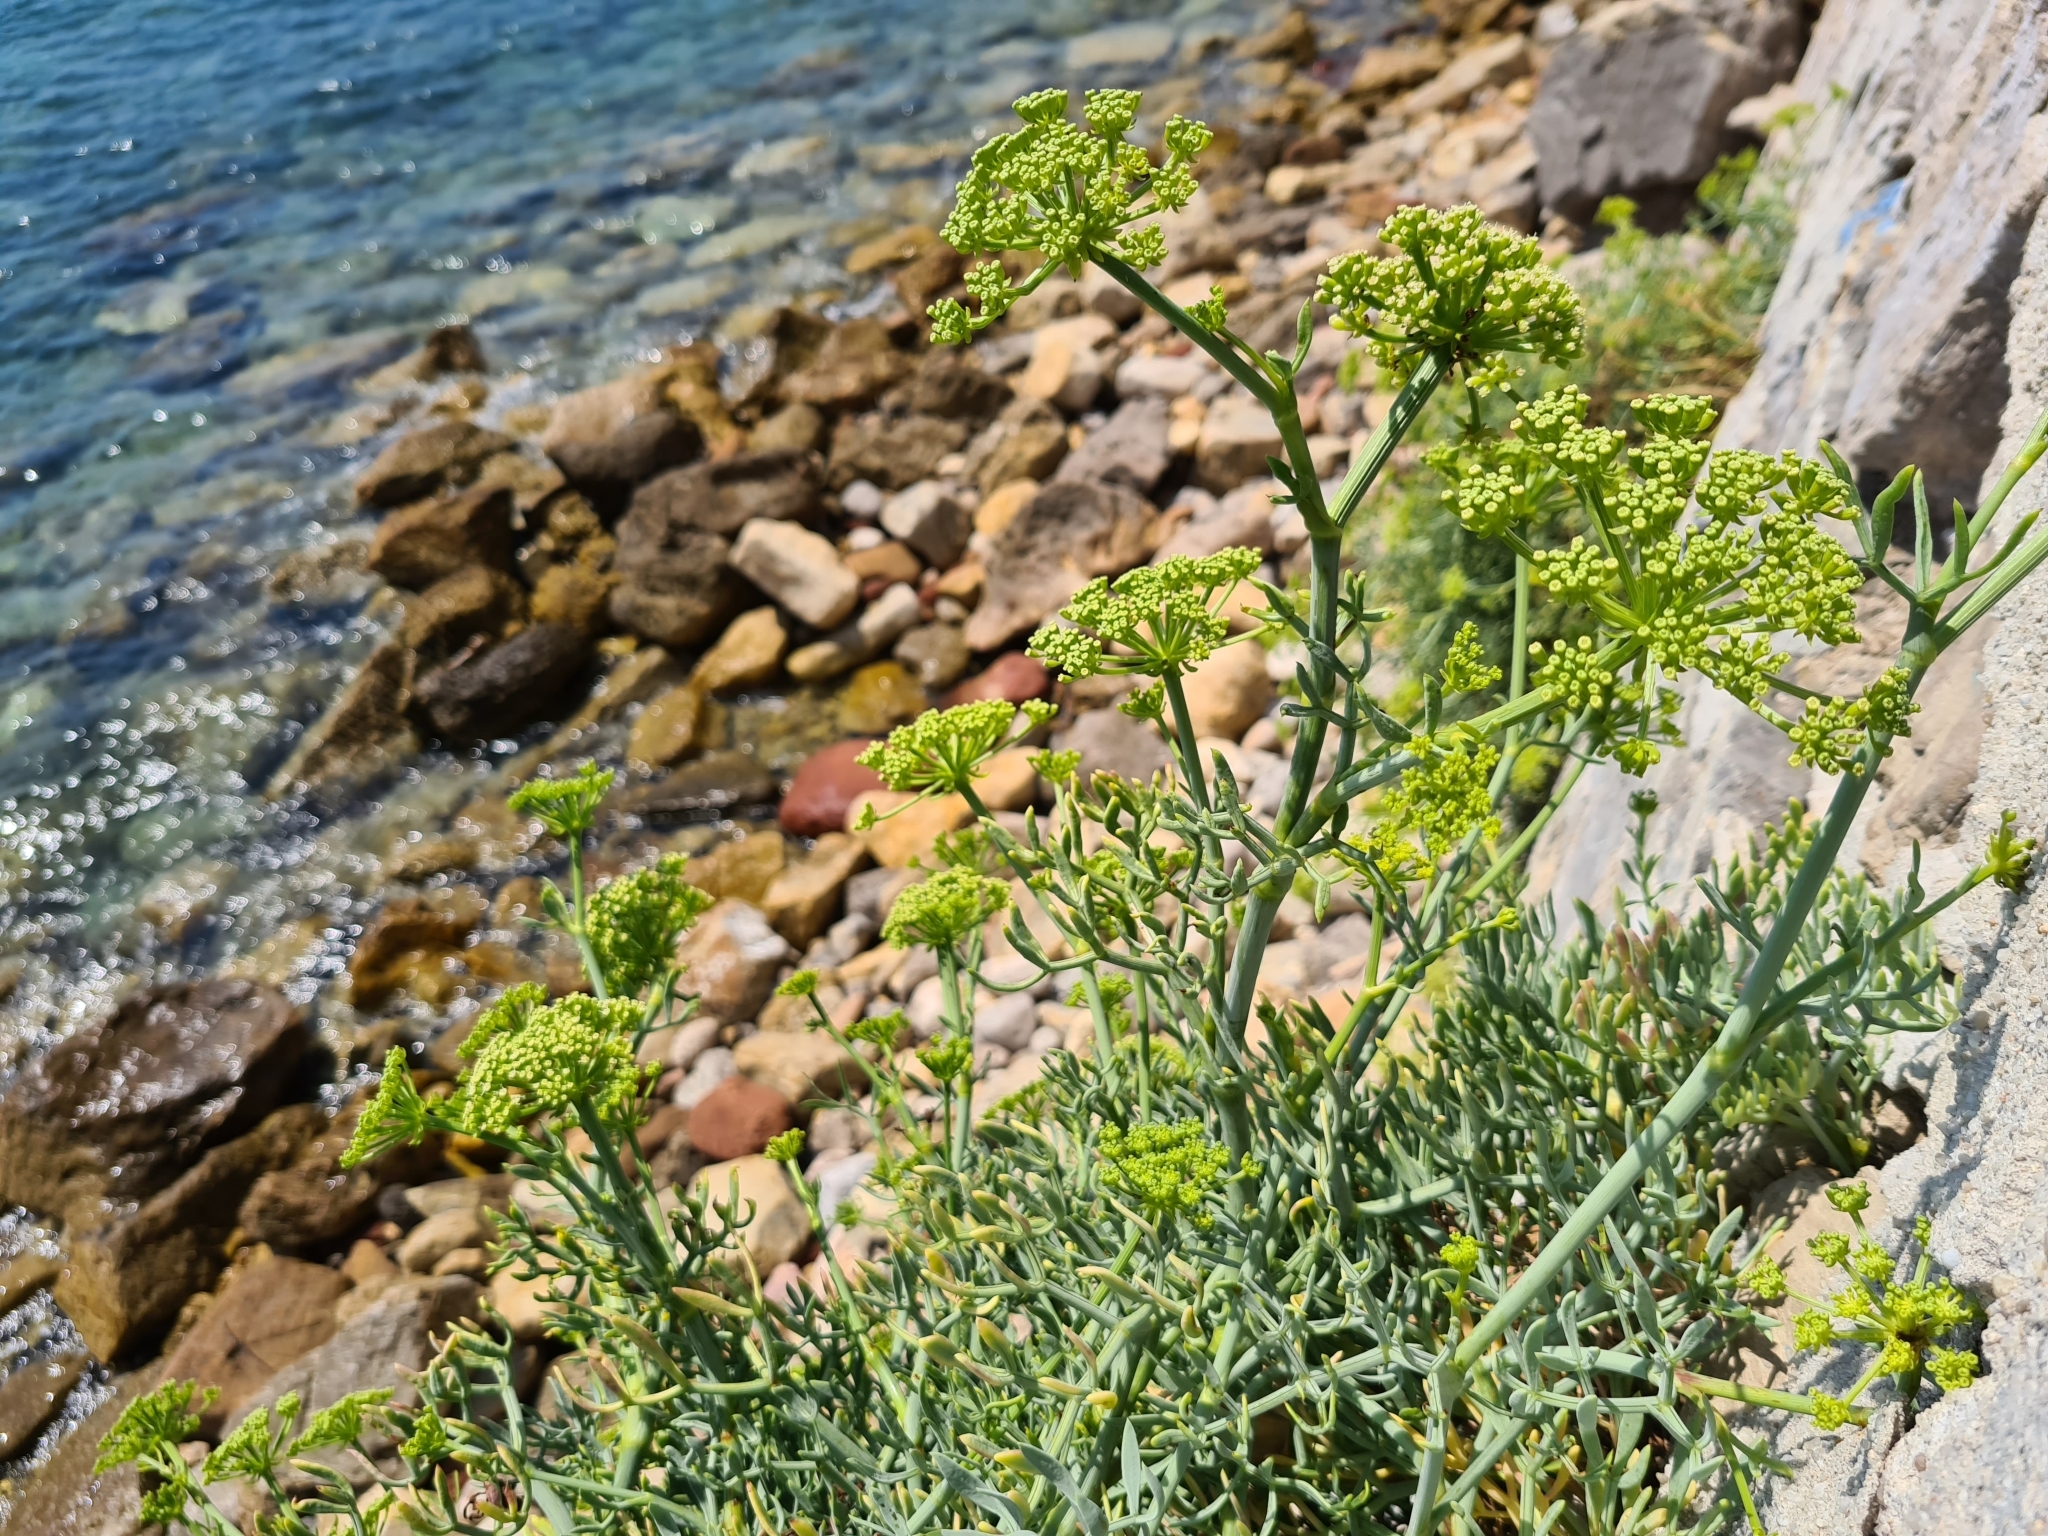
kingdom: Plantae
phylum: Tracheophyta
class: Magnoliopsida
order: Apiales
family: Apiaceae
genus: Crithmum
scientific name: Crithmum maritimum
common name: Rock samphire
